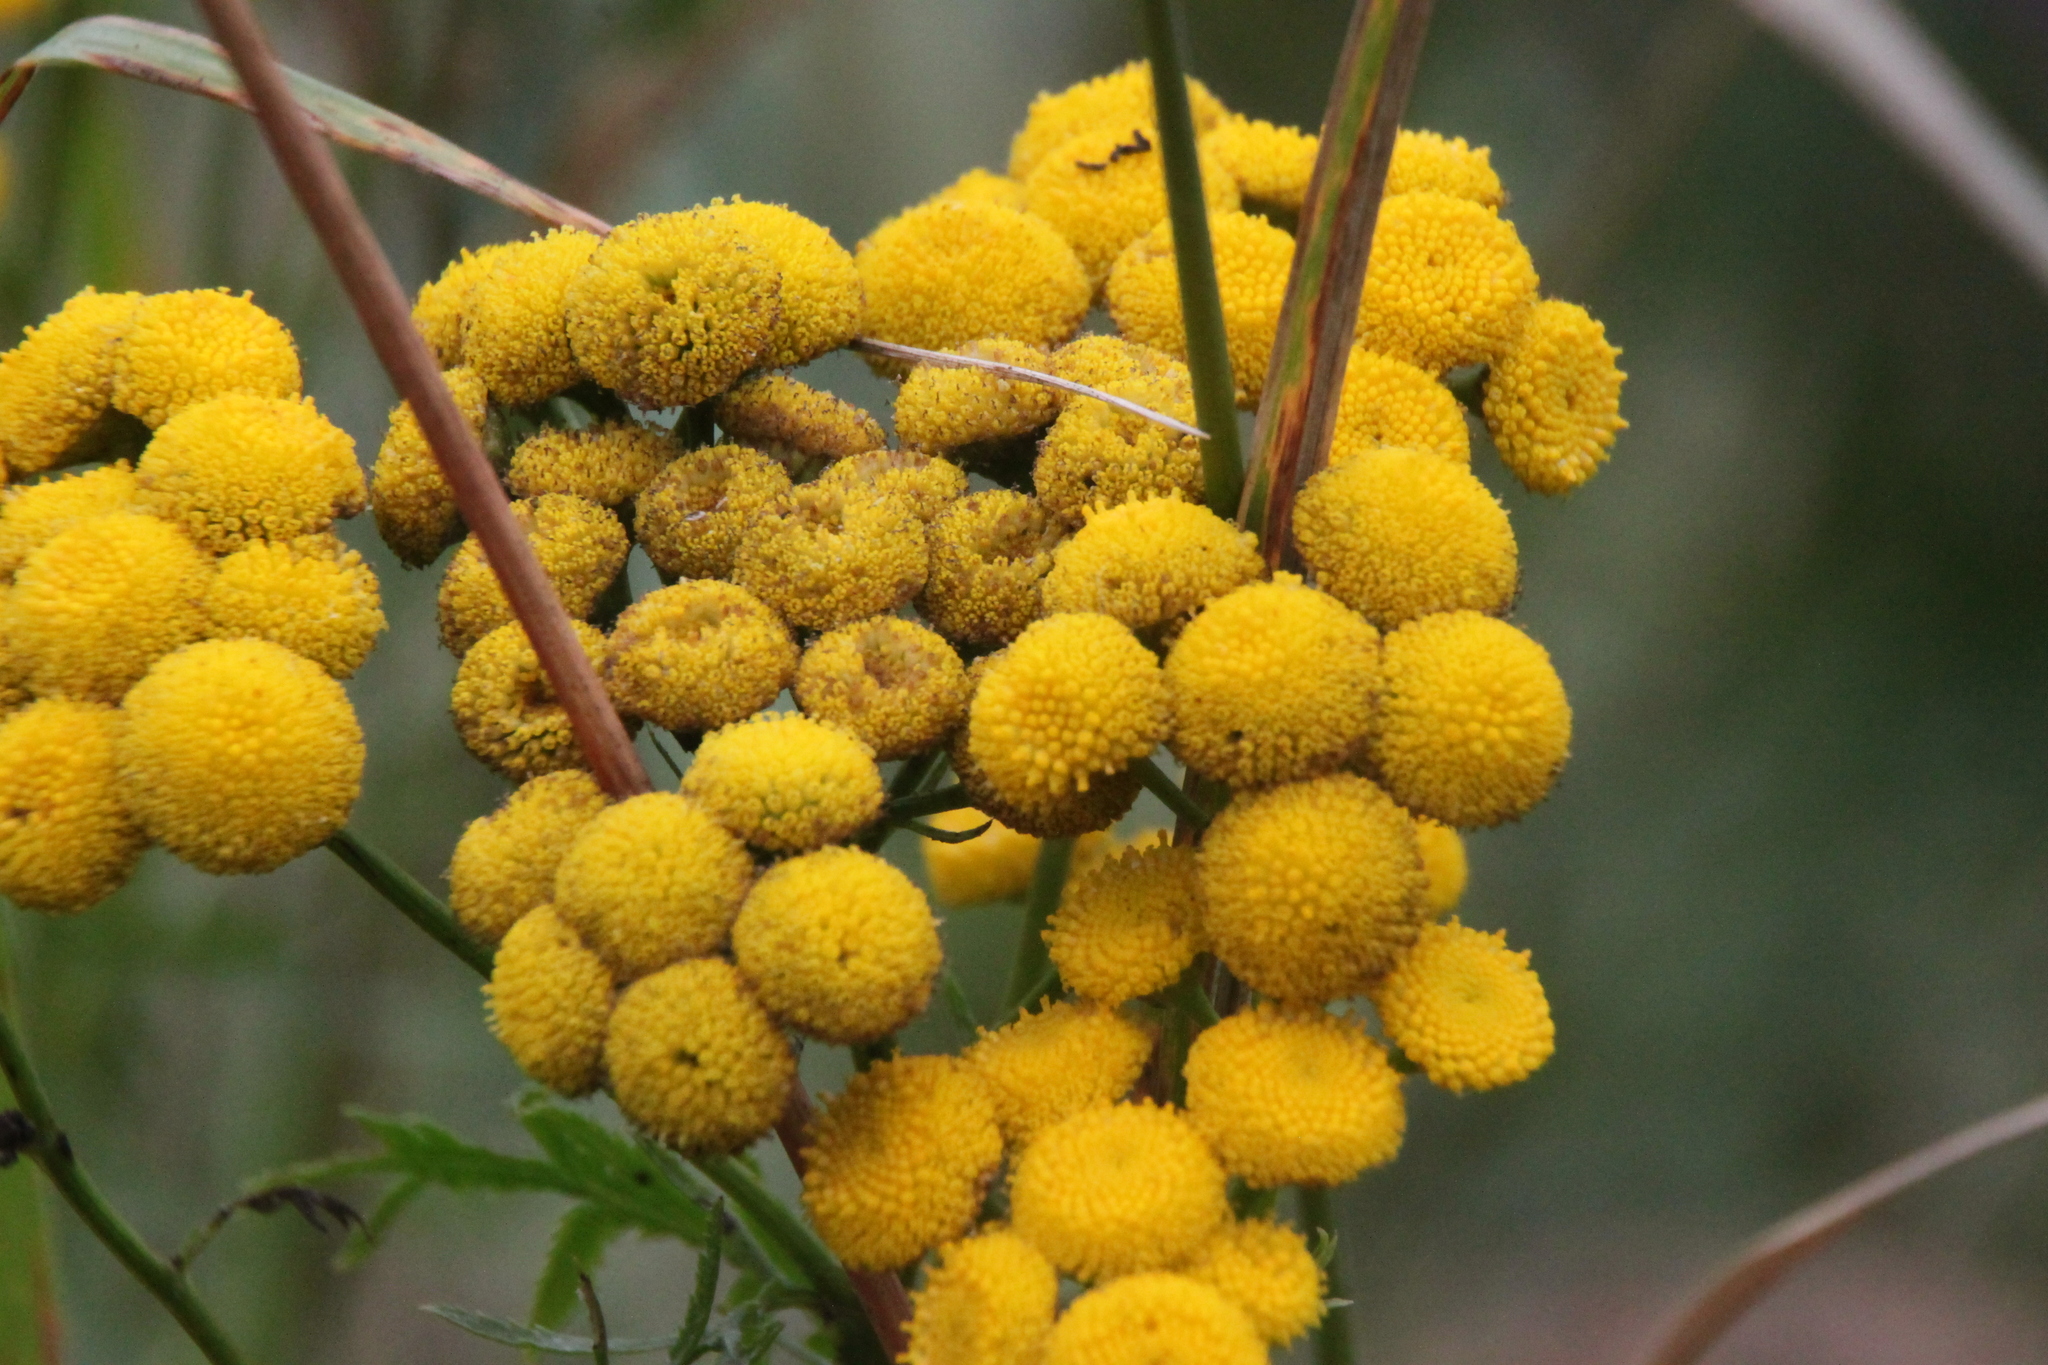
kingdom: Plantae
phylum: Tracheophyta
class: Magnoliopsida
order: Asterales
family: Asteraceae
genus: Tanacetum
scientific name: Tanacetum vulgare
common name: Common tansy
